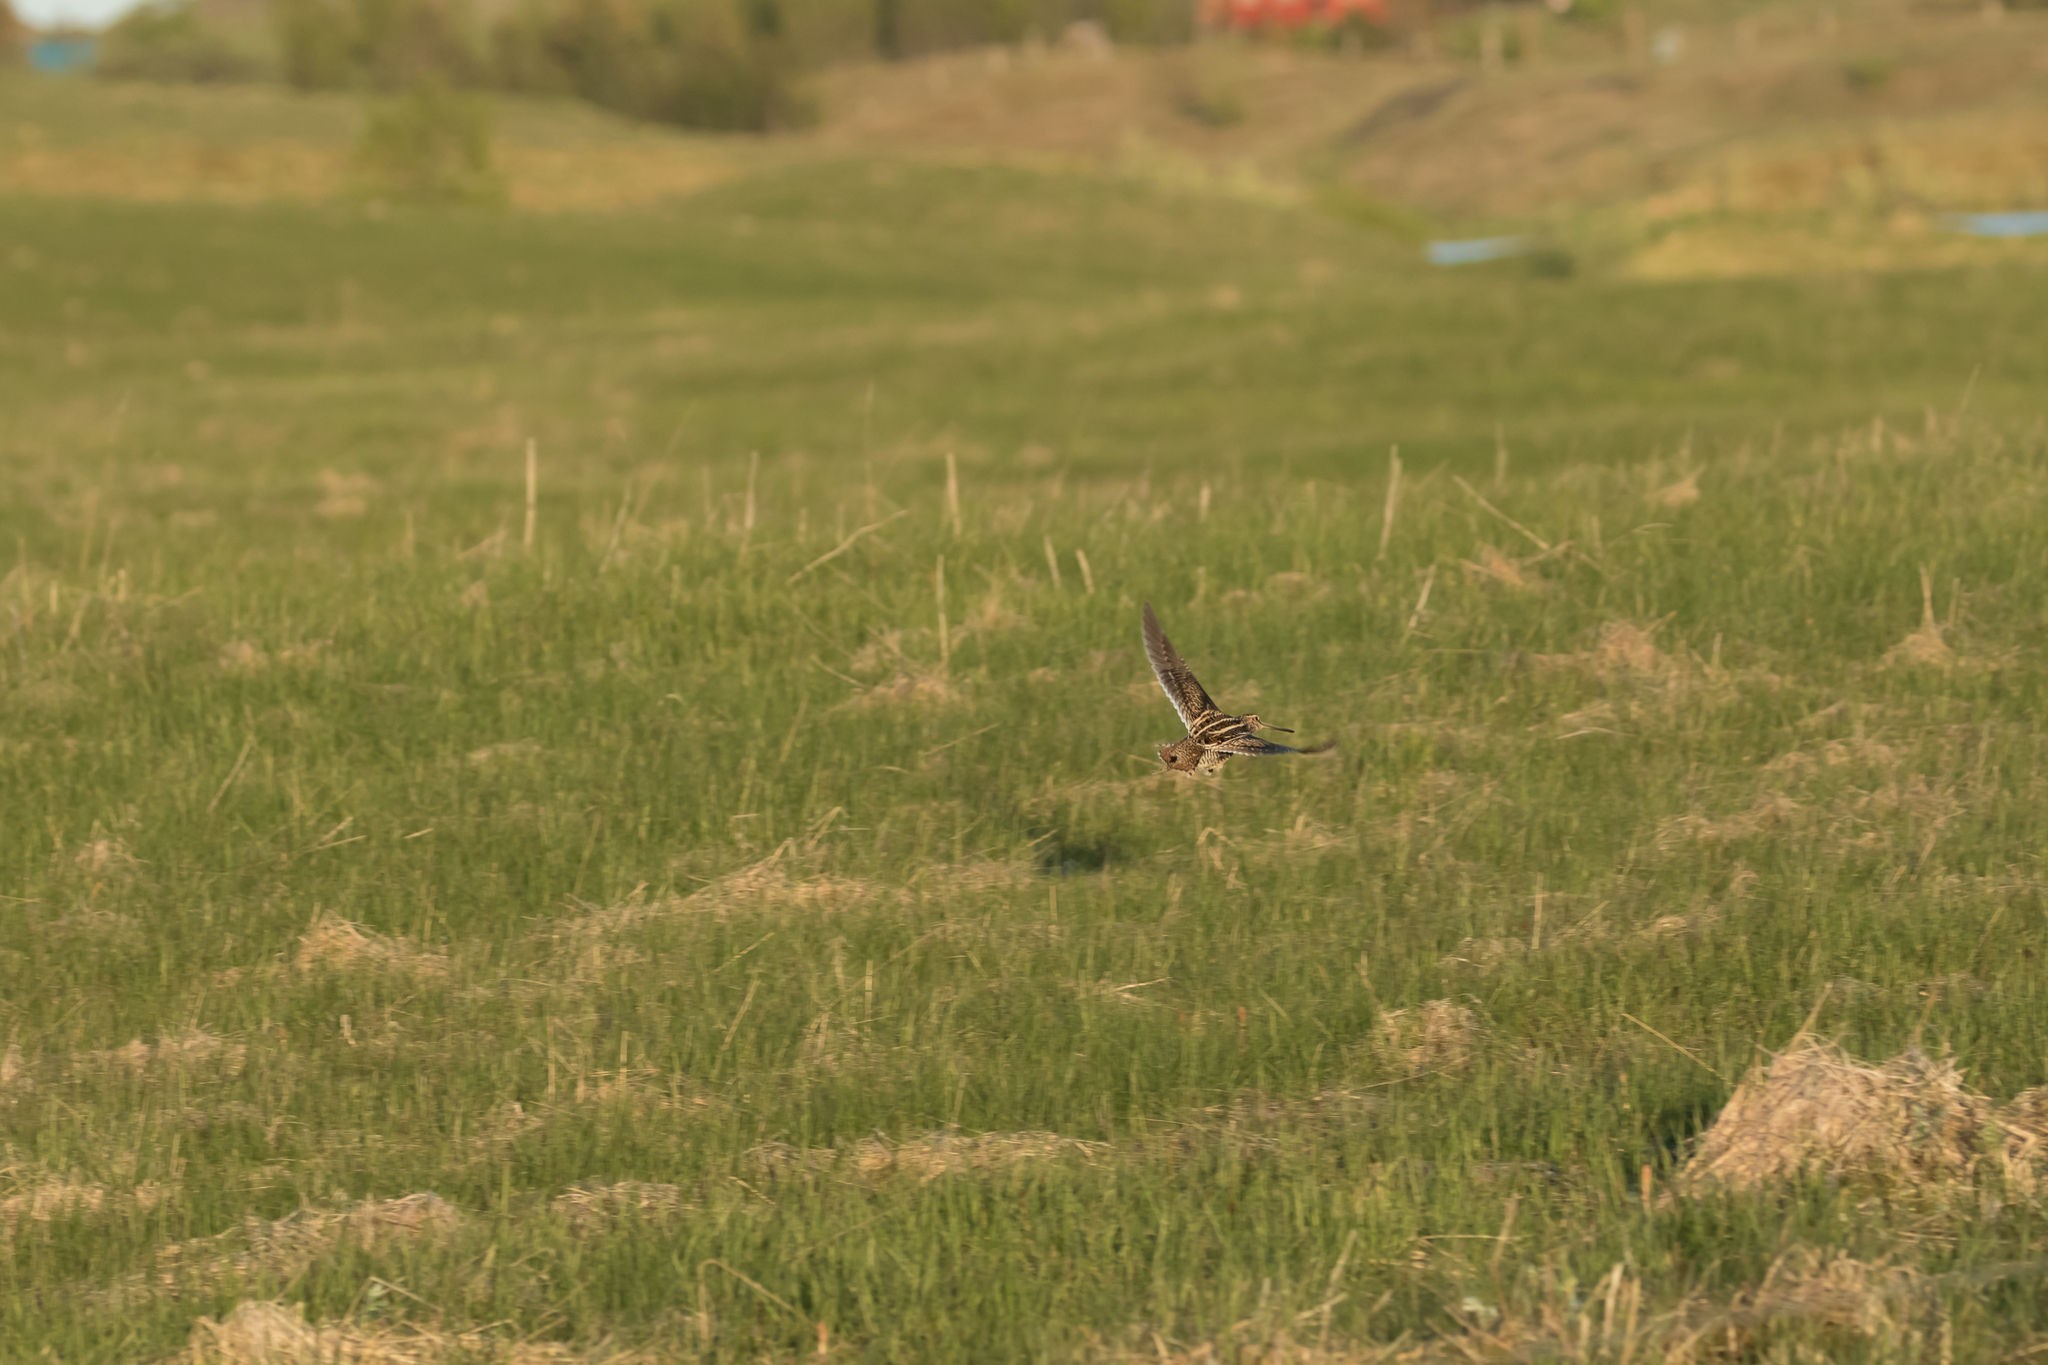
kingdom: Animalia
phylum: Chordata
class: Aves
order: Charadriiformes
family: Scolopacidae
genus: Gallinago
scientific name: Gallinago gallinago
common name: Common snipe
